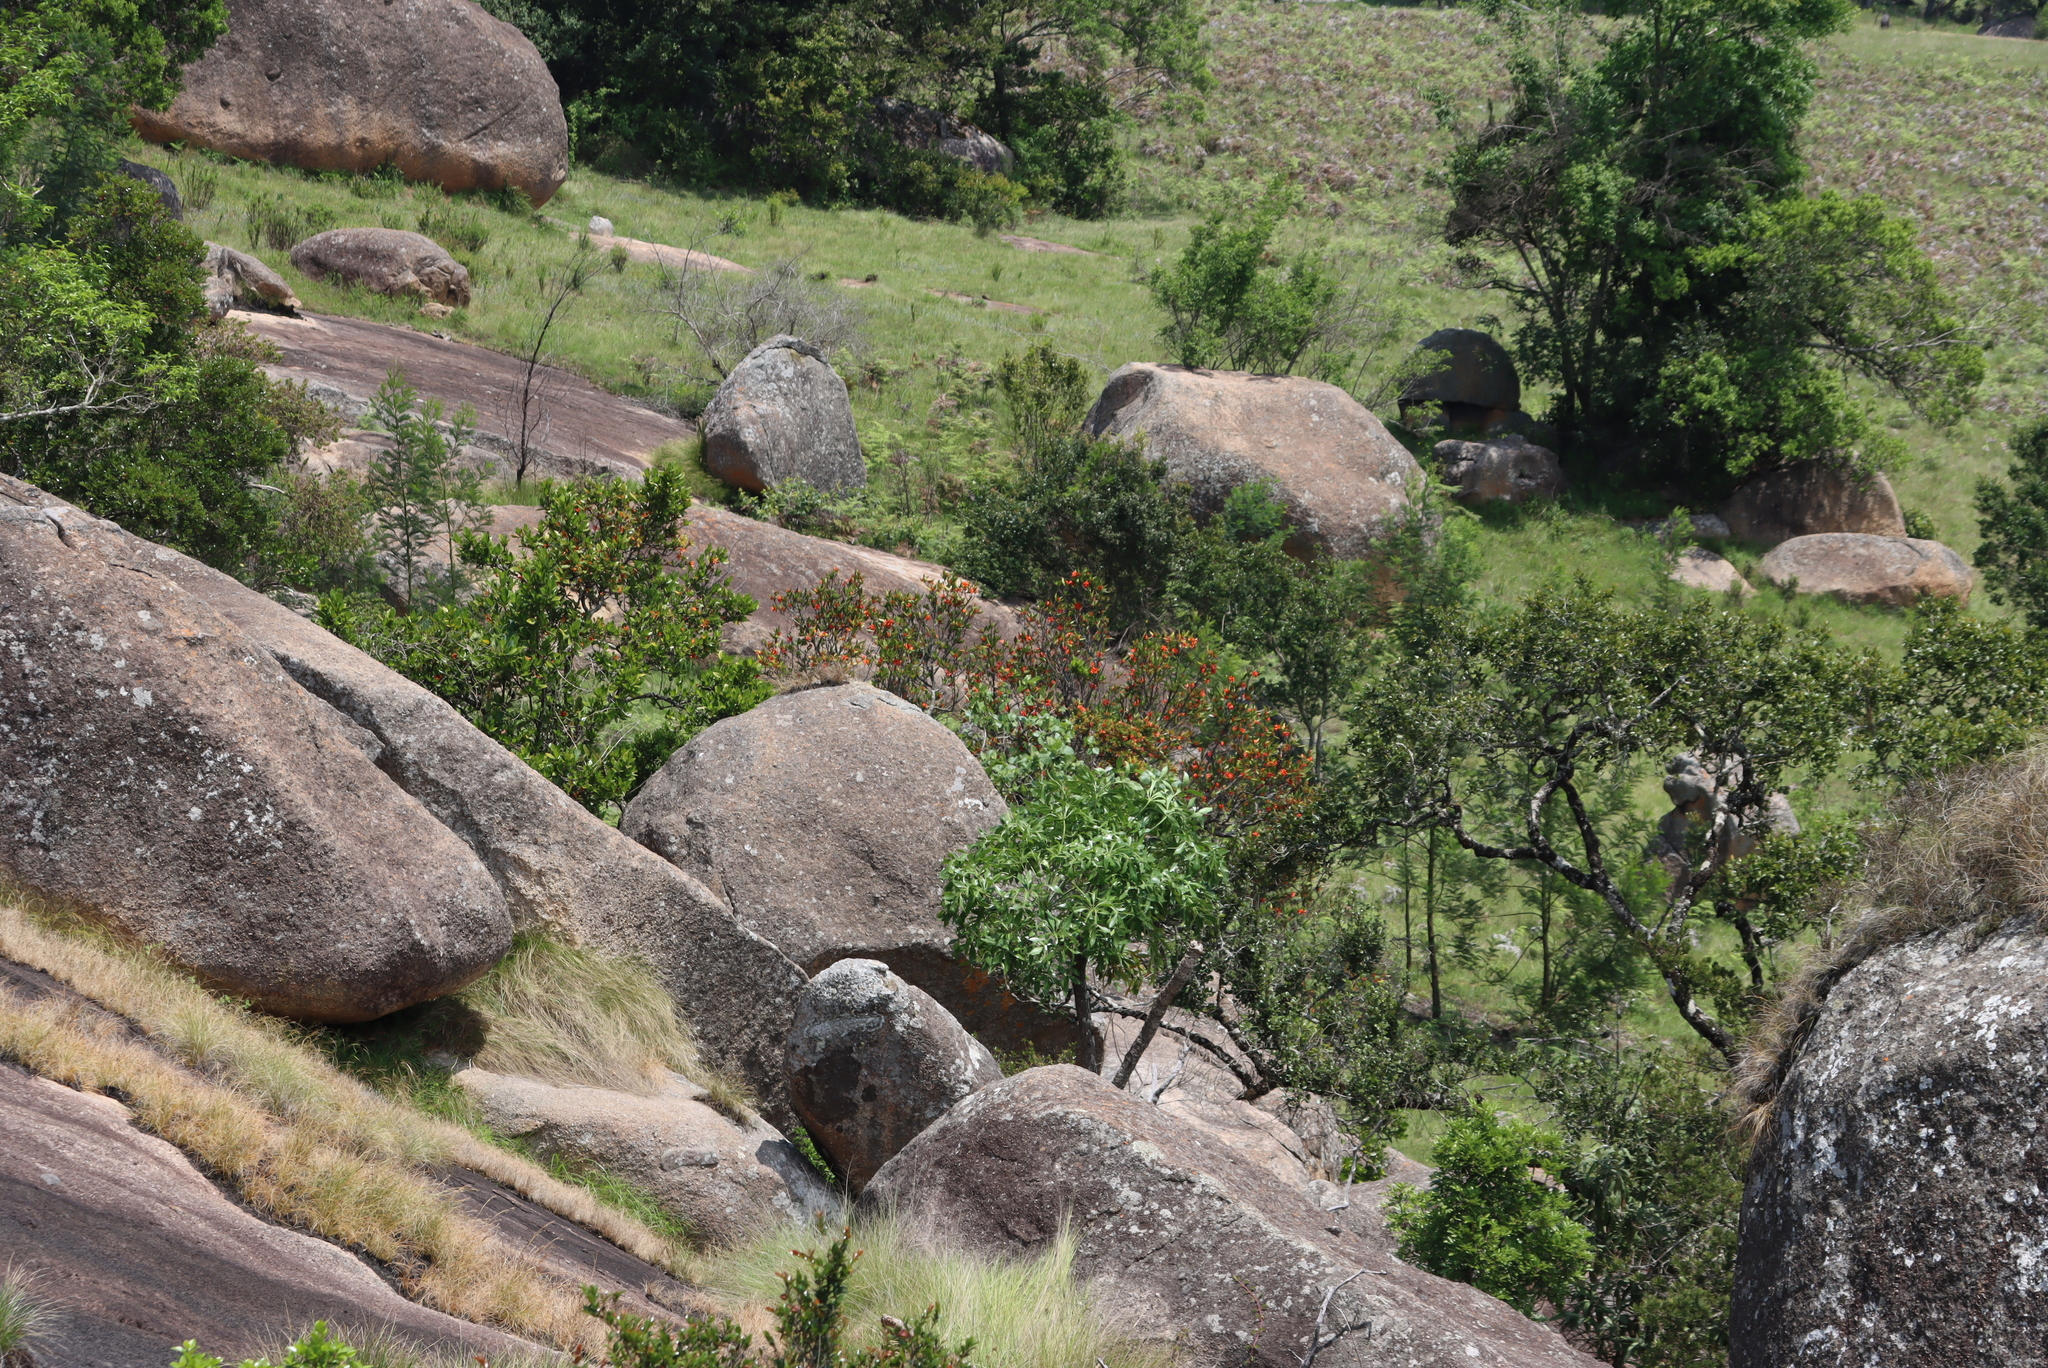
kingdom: Plantae
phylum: Tracheophyta
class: Magnoliopsida
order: Gentianales
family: Rubiaceae
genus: Burchellia
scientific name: Burchellia bubalina
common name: Wild pomegranate
